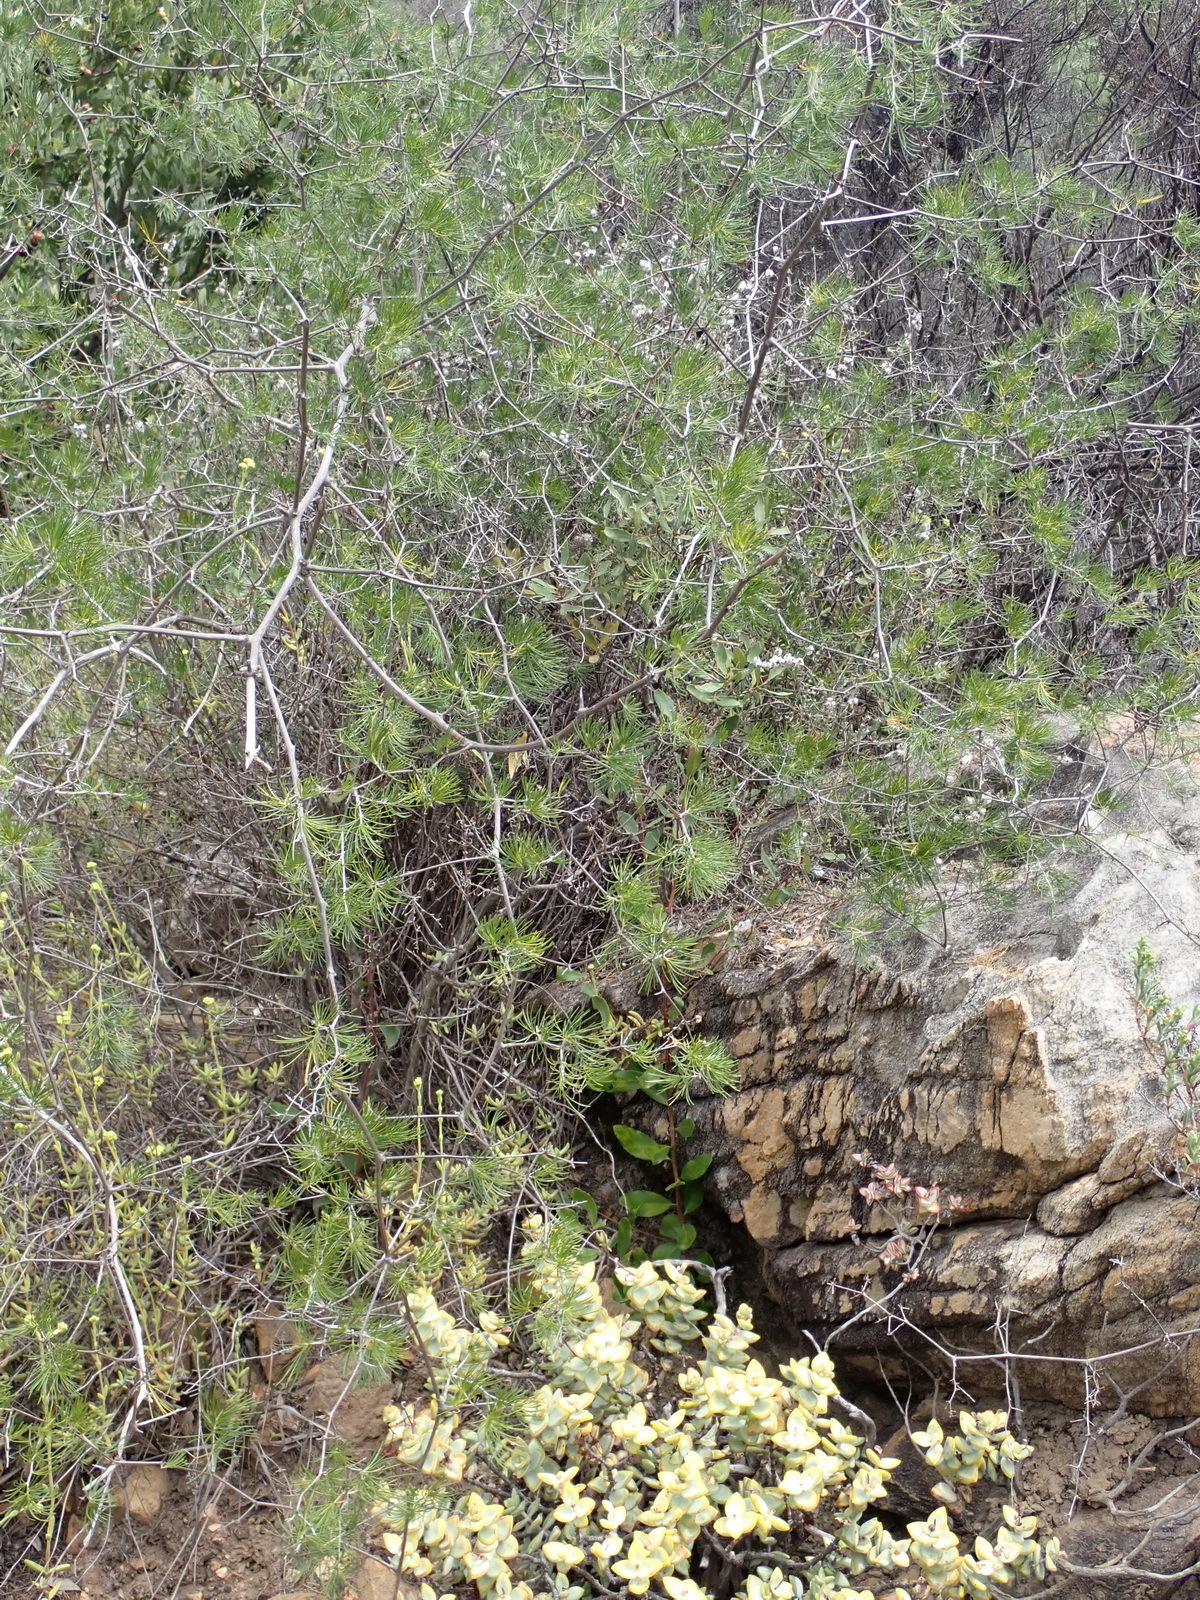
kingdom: Plantae
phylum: Tracheophyta
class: Liliopsida
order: Asparagales
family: Asparagaceae
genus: Asparagus
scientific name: Asparagus retrofractus
